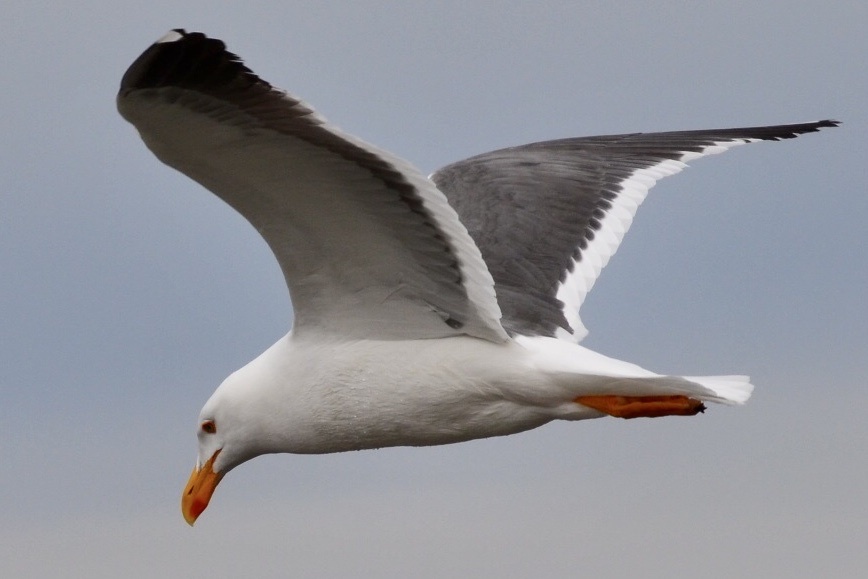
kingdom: Animalia
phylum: Chordata
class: Aves
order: Charadriiformes
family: Laridae
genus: Larus
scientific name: Larus livens
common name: Yellow-footed gull
